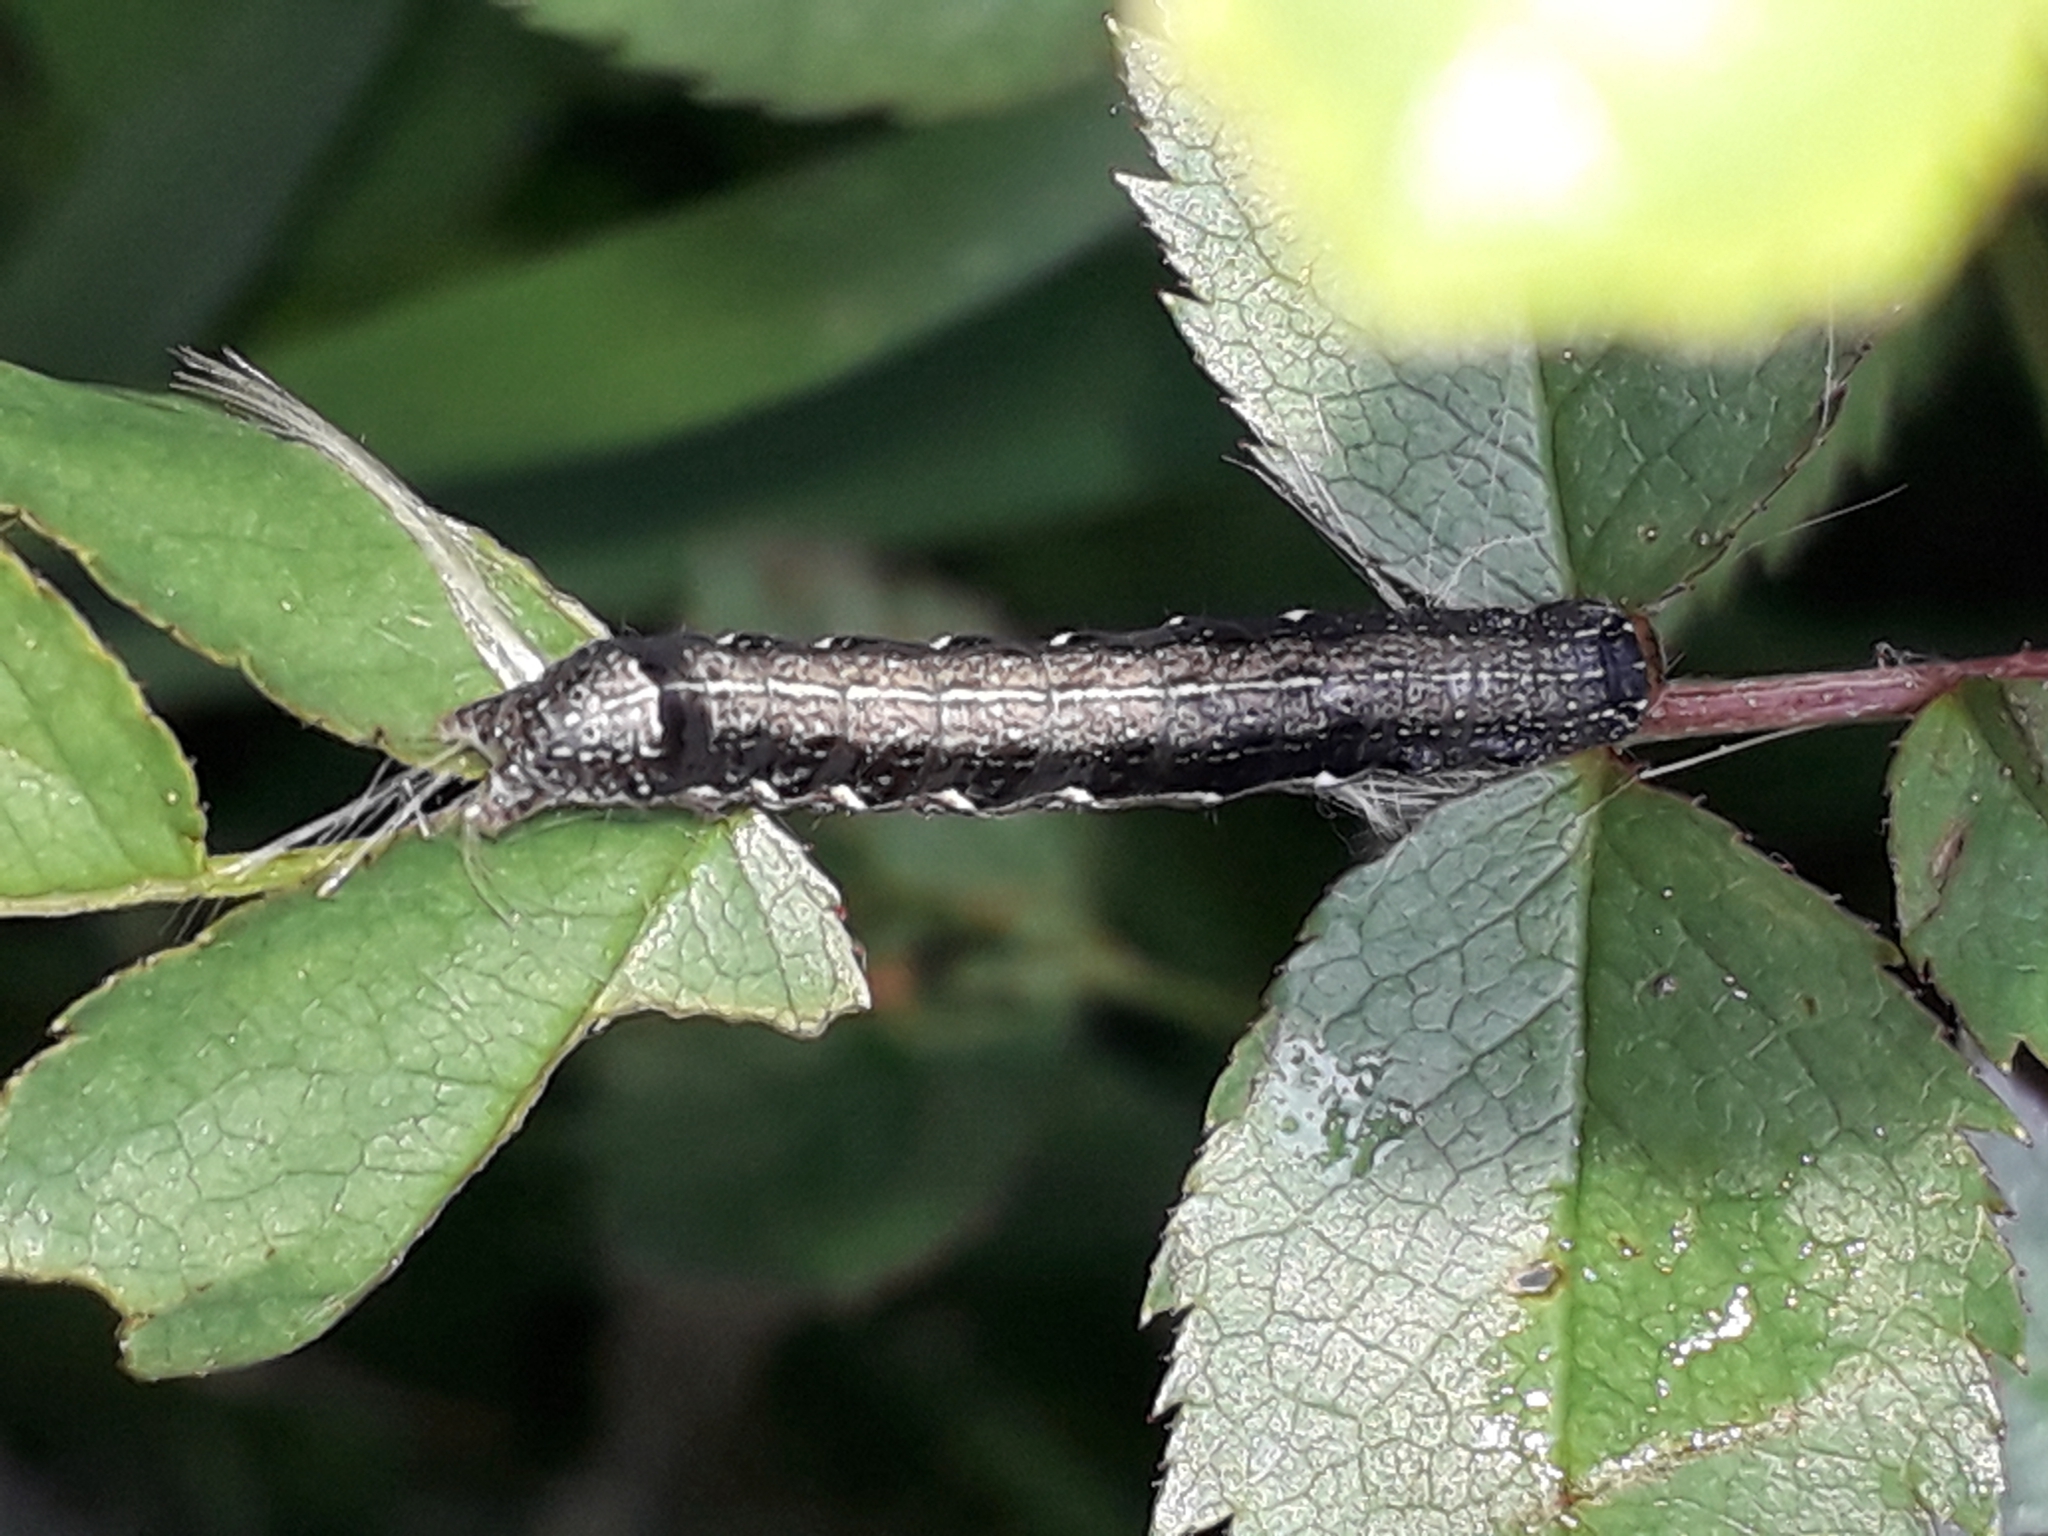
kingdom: Animalia
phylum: Arthropoda
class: Insecta
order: Lepidoptera
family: Noctuidae
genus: Anorthoa
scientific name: Anorthoa munda
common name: Twin-spotted quaker
